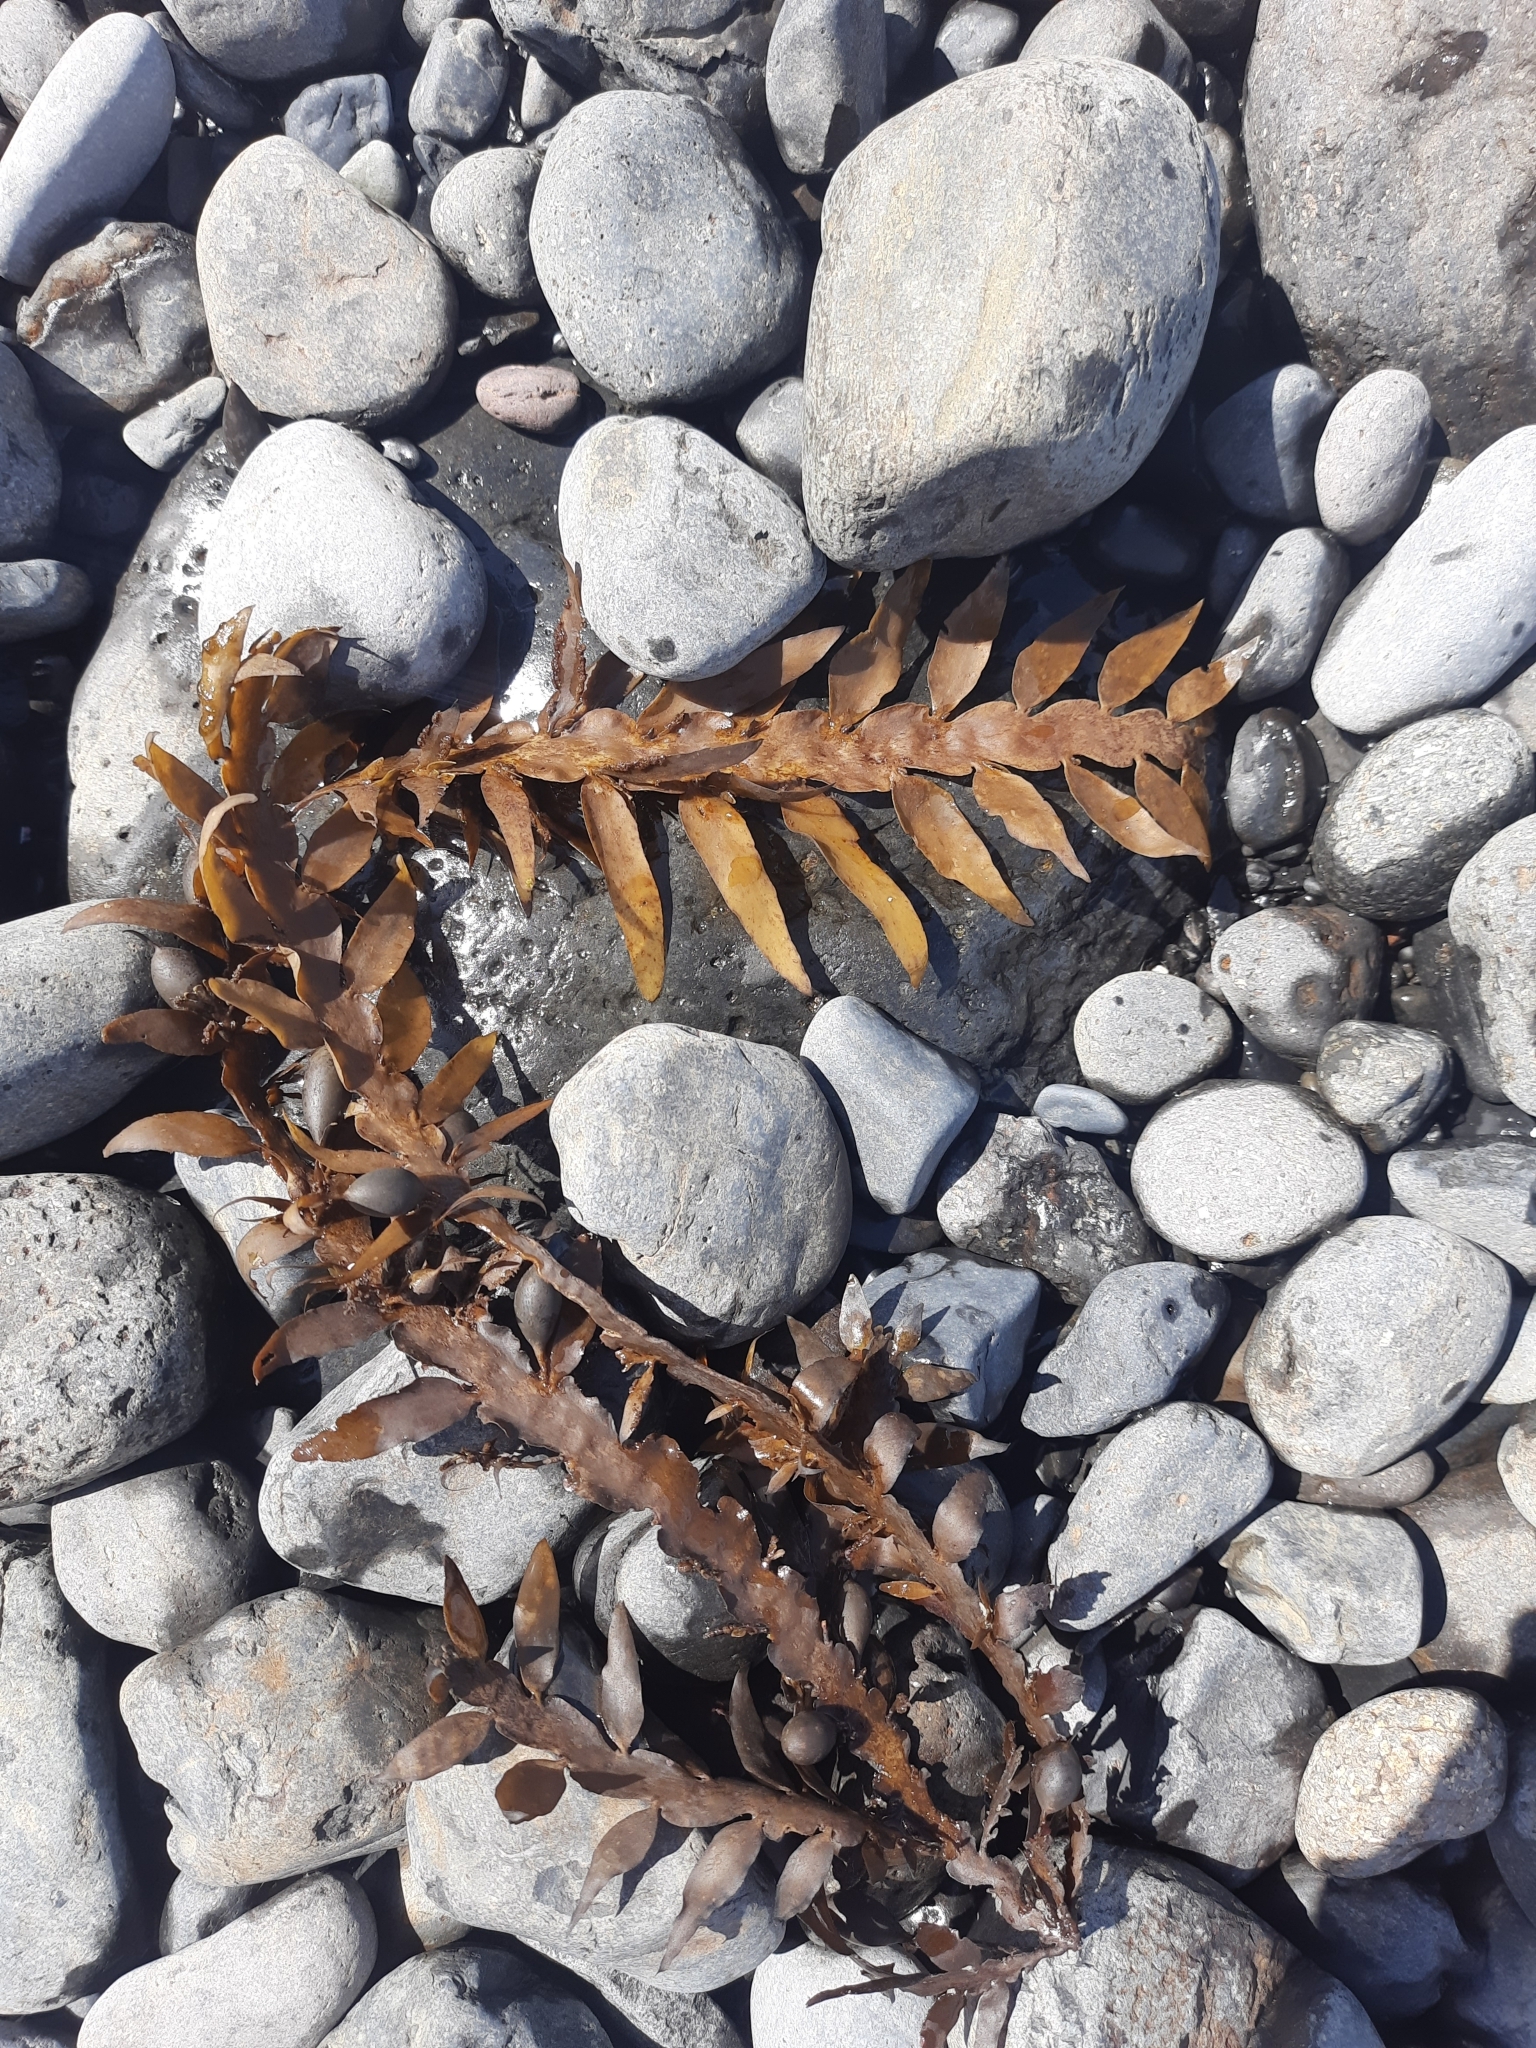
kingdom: Chromista
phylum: Ochrophyta
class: Phaeophyceae
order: Fucales
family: Sargassaceae
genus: Carpophyllum
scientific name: Carpophyllum maschalocarpum
